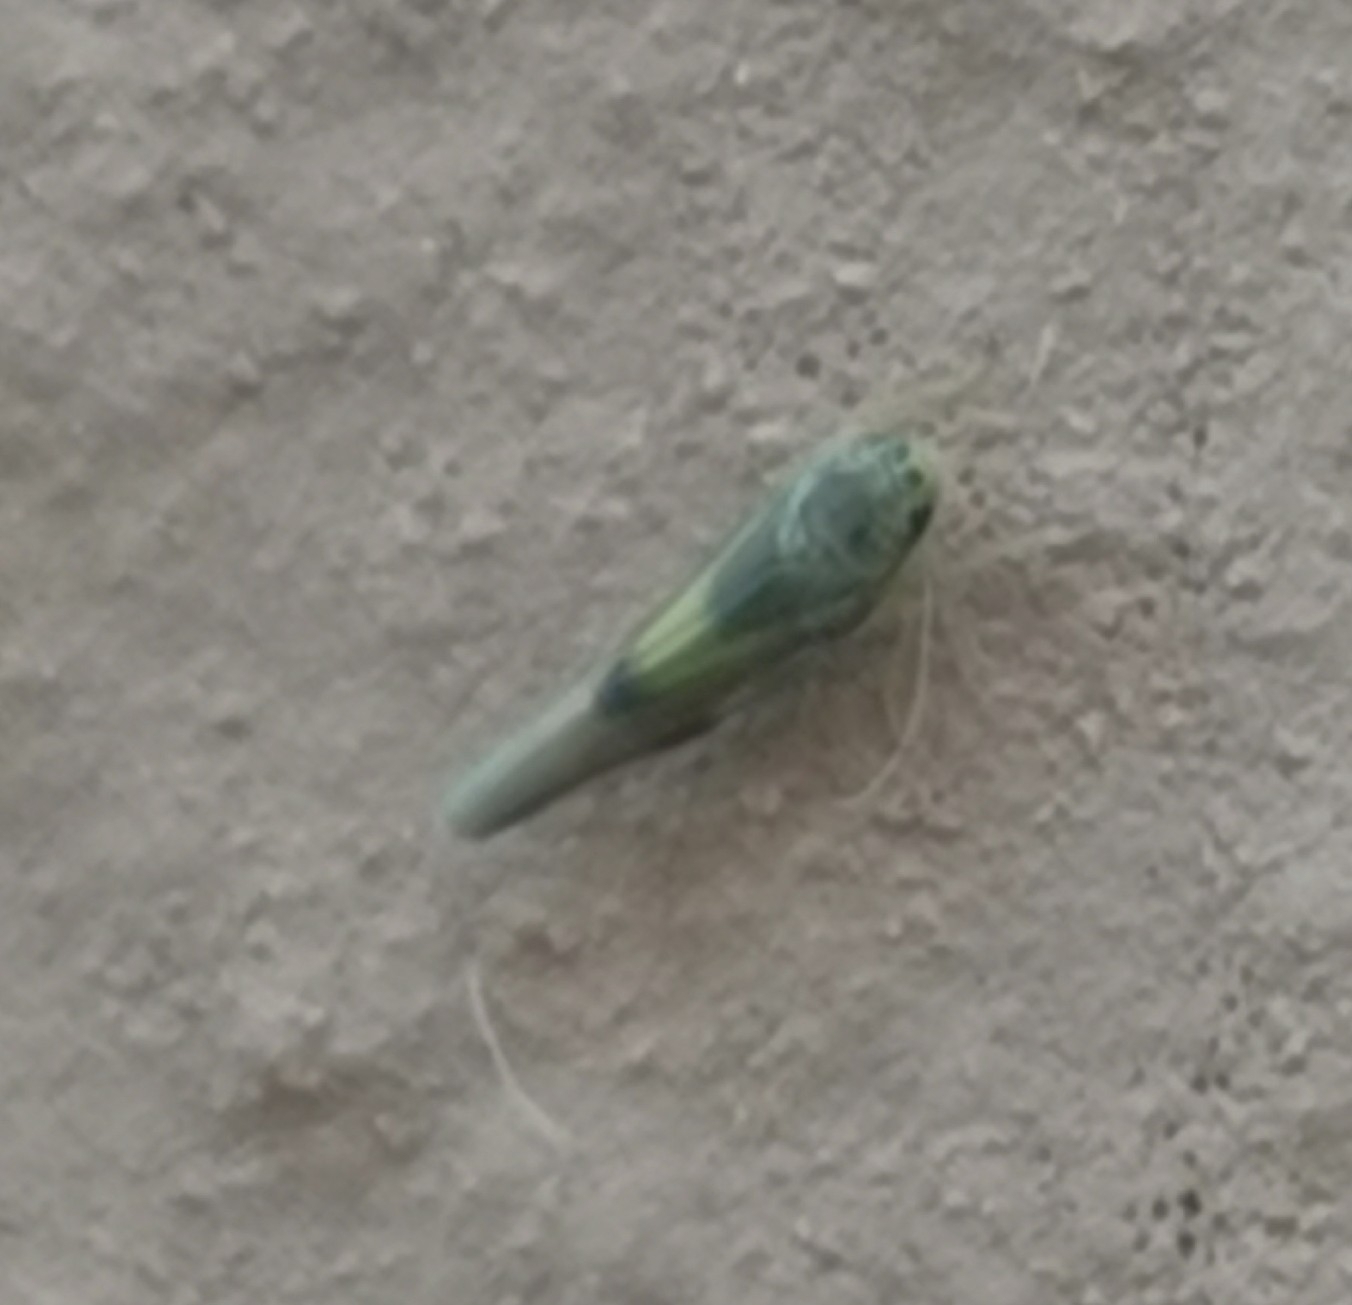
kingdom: Animalia
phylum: Arthropoda
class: Insecta
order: Hemiptera
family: Cicadellidae
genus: Vilbasteana
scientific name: Vilbasteana oculata
